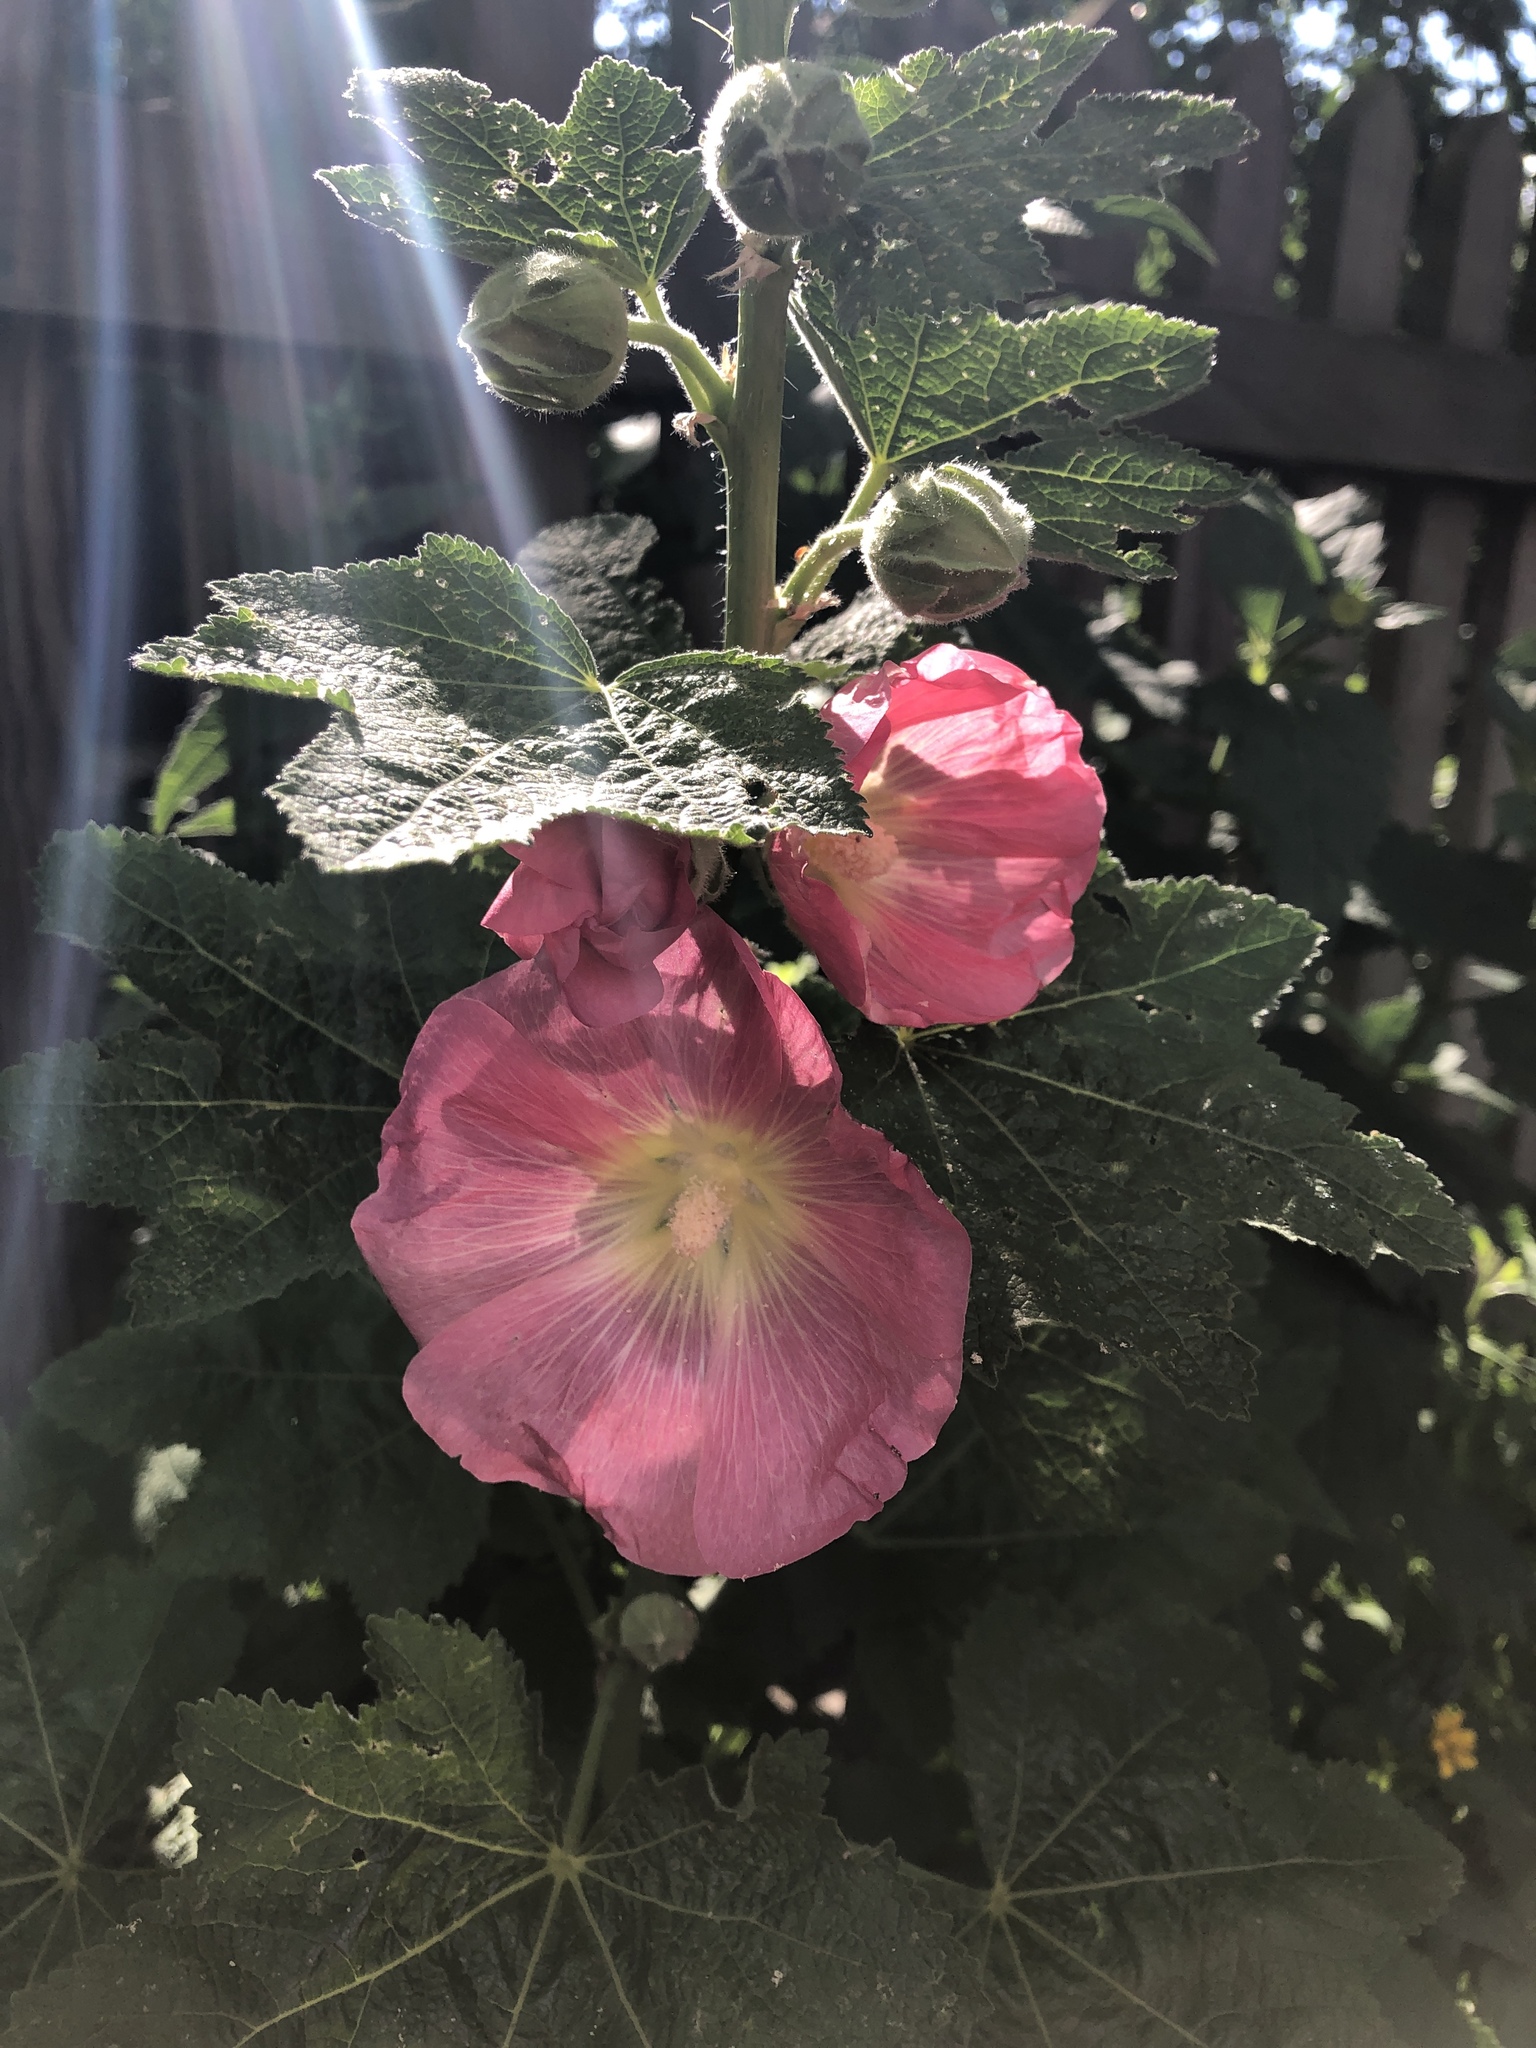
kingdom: Plantae
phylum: Tracheophyta
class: Magnoliopsida
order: Malvales
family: Malvaceae
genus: Alcea
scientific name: Alcea rosea
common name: Hollyhock
